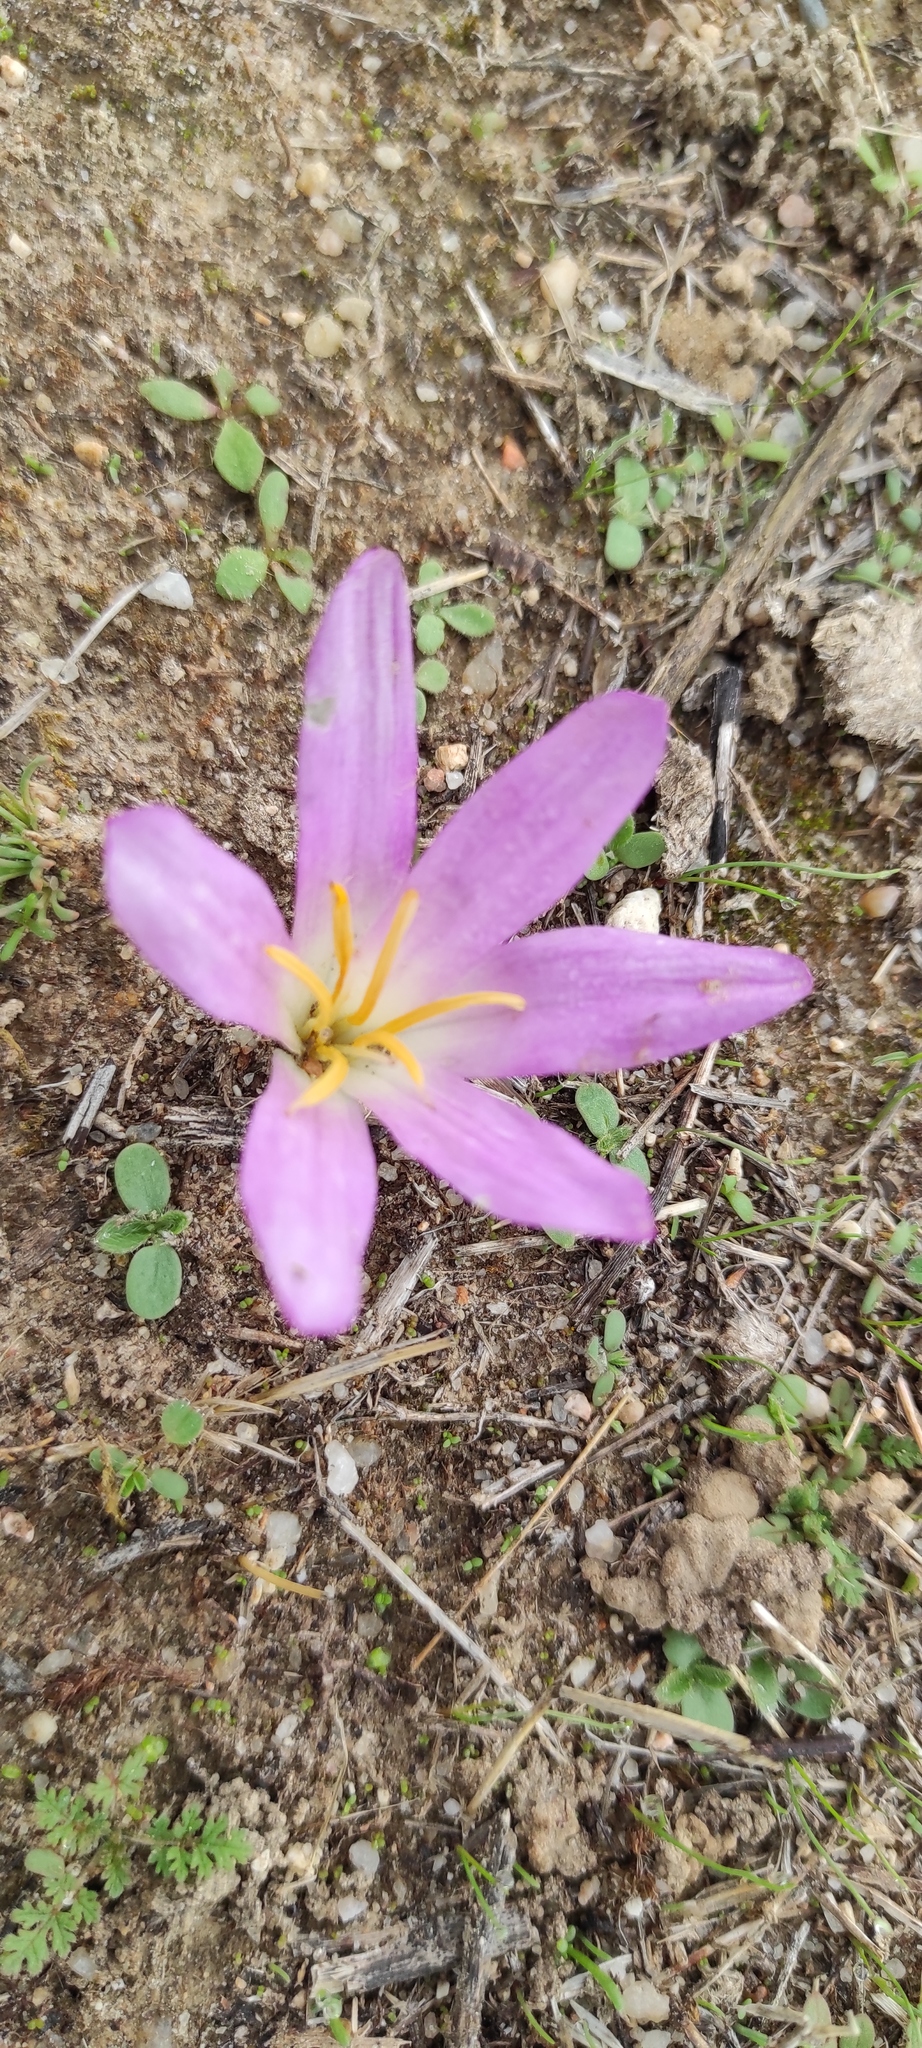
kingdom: Plantae
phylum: Tracheophyta
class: Liliopsida
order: Liliales
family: Colchicaceae
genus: Colchicum
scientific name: Colchicum montanum
